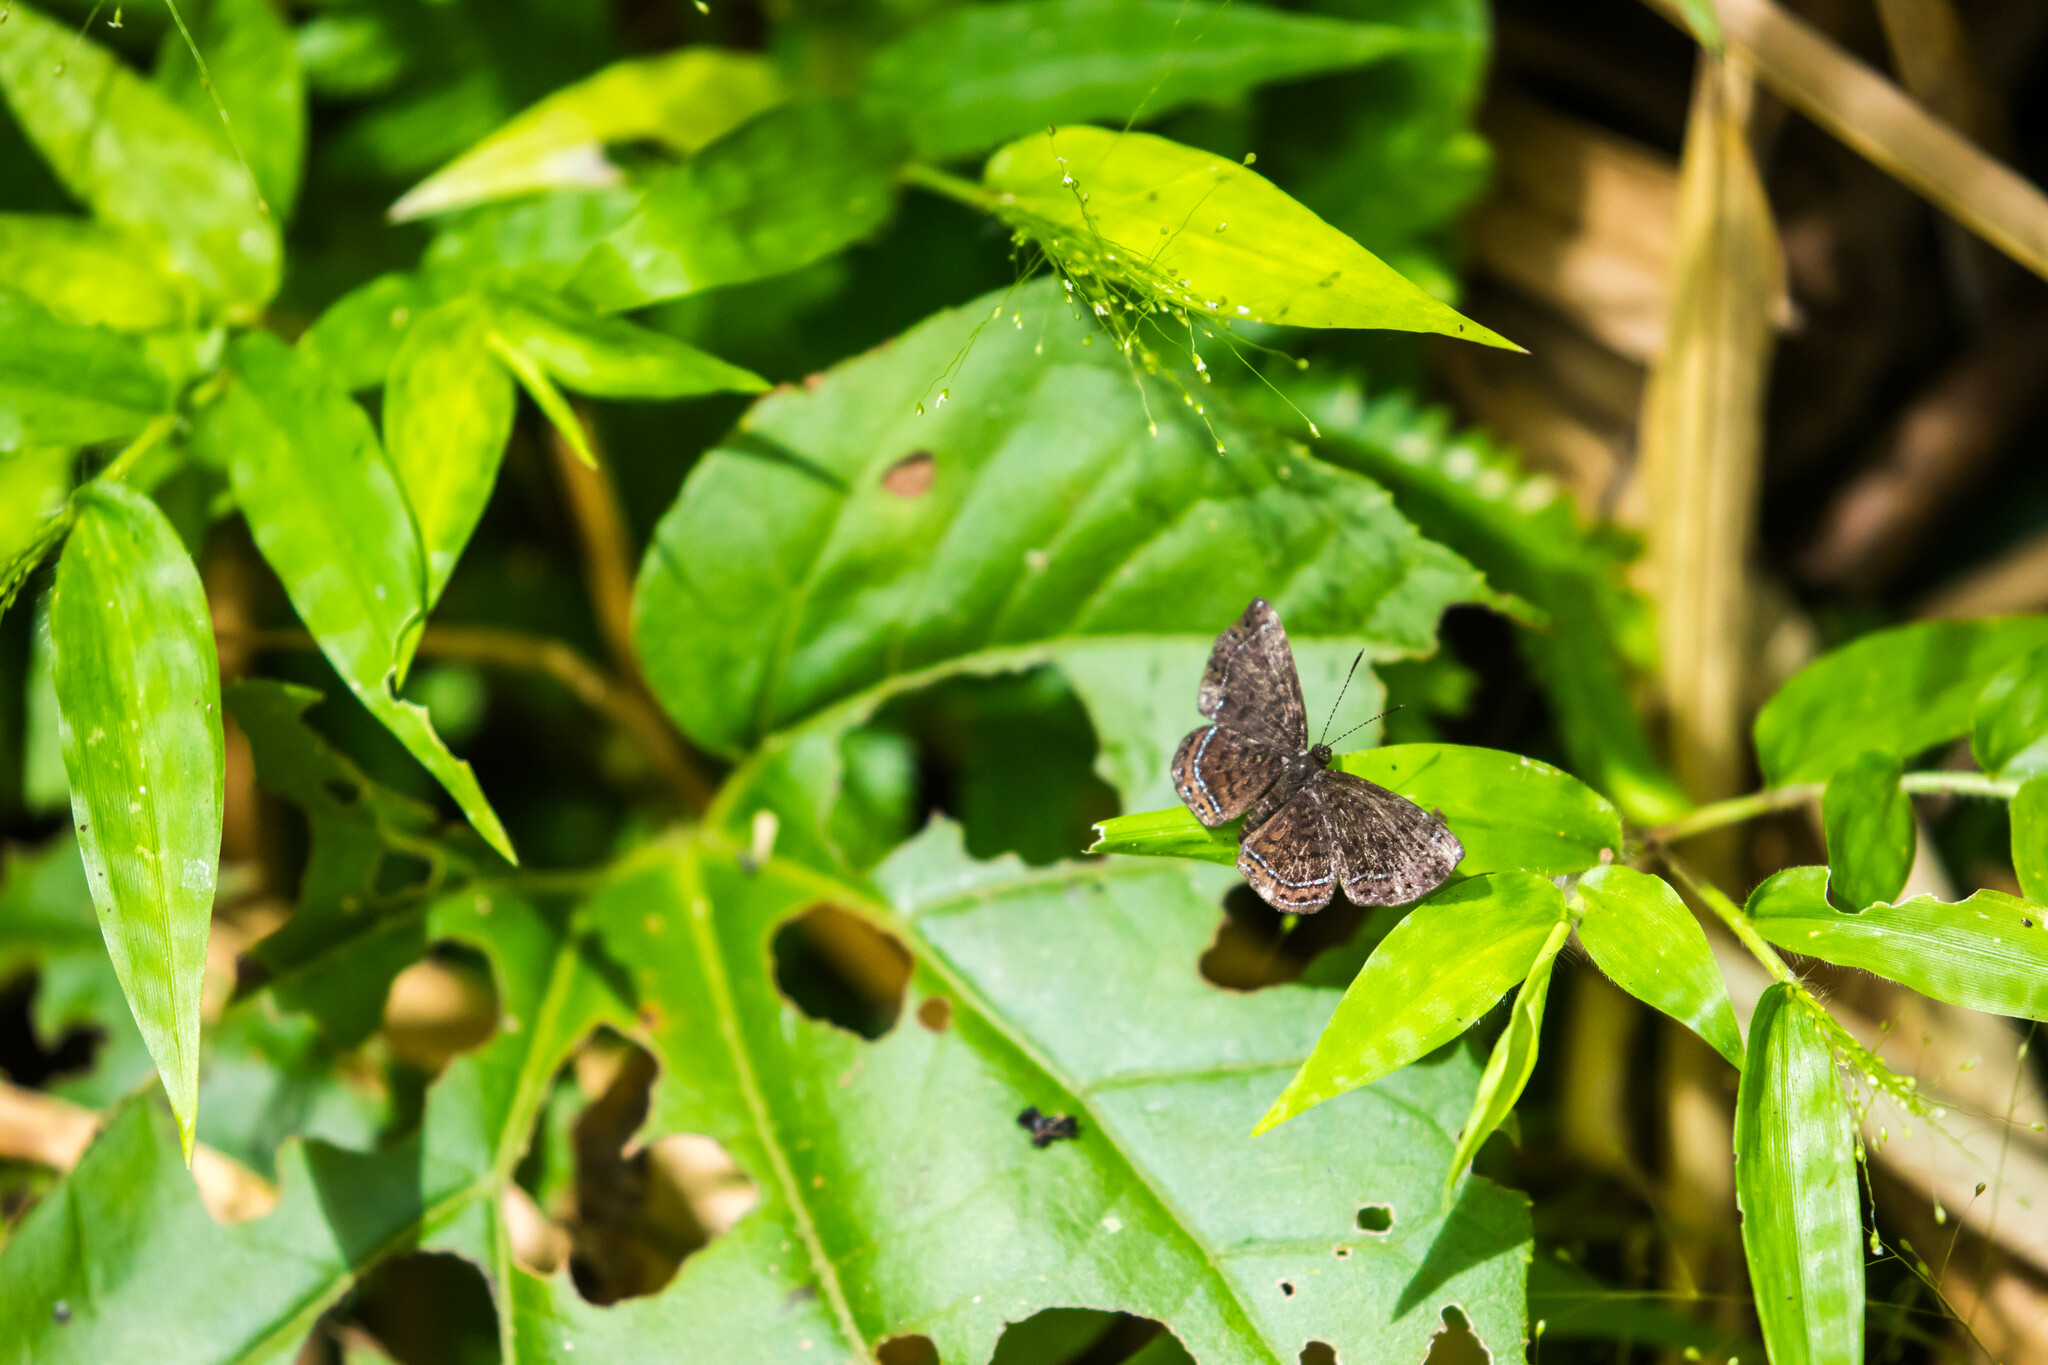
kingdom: Animalia
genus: Charis
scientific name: Charis anius
